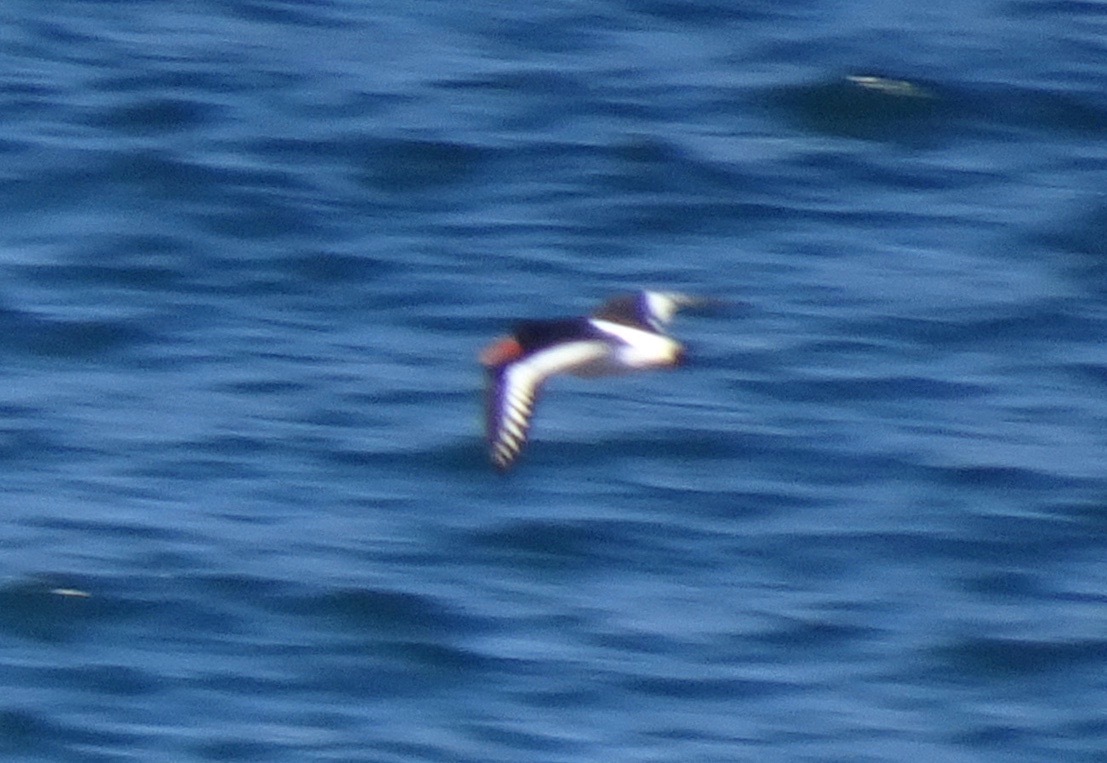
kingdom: Animalia
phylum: Chordata
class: Aves
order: Charadriiformes
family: Haematopodidae
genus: Haematopus
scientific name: Haematopus ostralegus
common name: Eurasian oystercatcher
